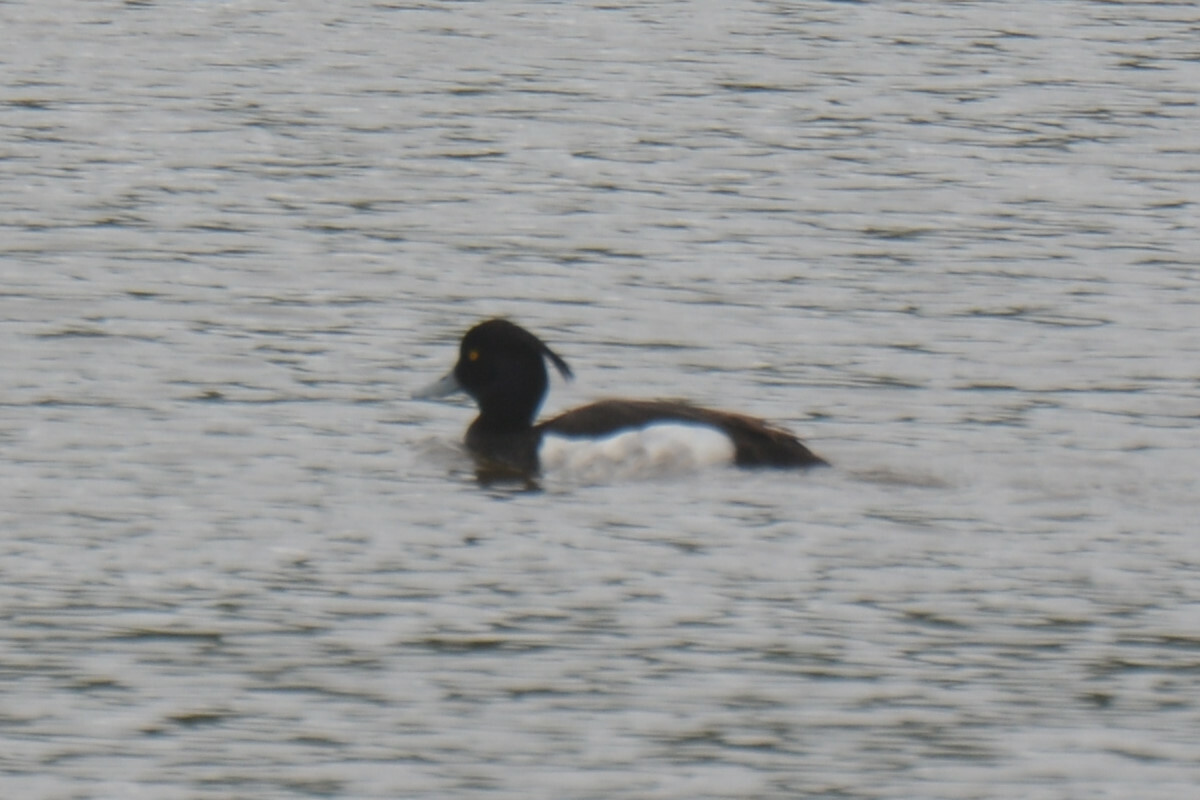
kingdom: Animalia
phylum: Chordata
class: Aves
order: Anseriformes
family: Anatidae
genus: Aythya
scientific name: Aythya fuligula
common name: Tufted duck
